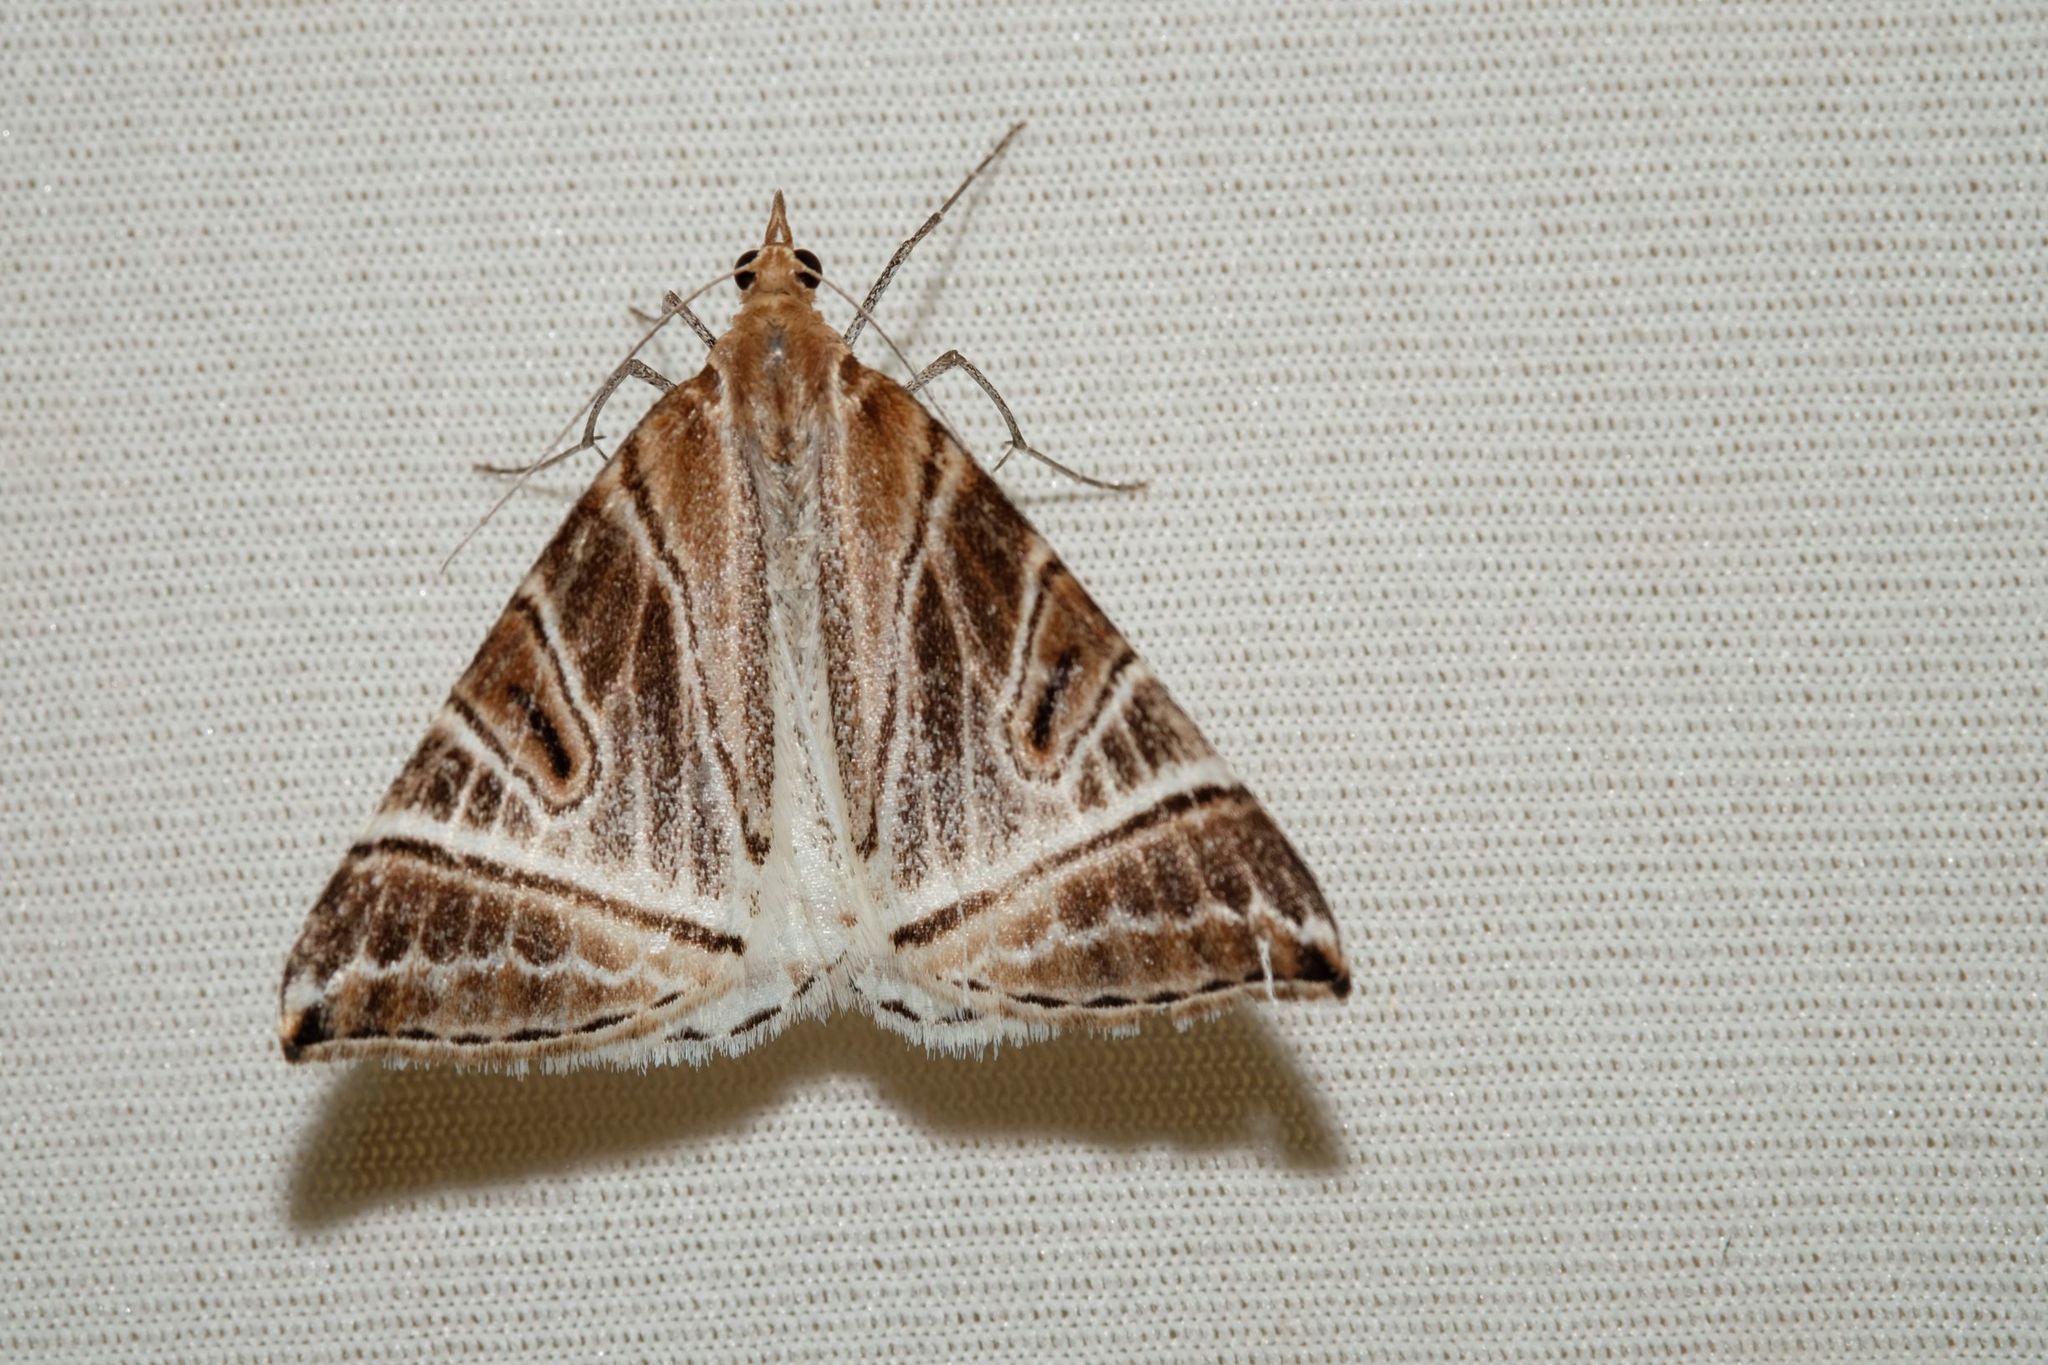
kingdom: Animalia
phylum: Arthropoda
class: Insecta
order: Lepidoptera
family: Geometridae
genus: Phrataria
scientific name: Phrataria replicataria
